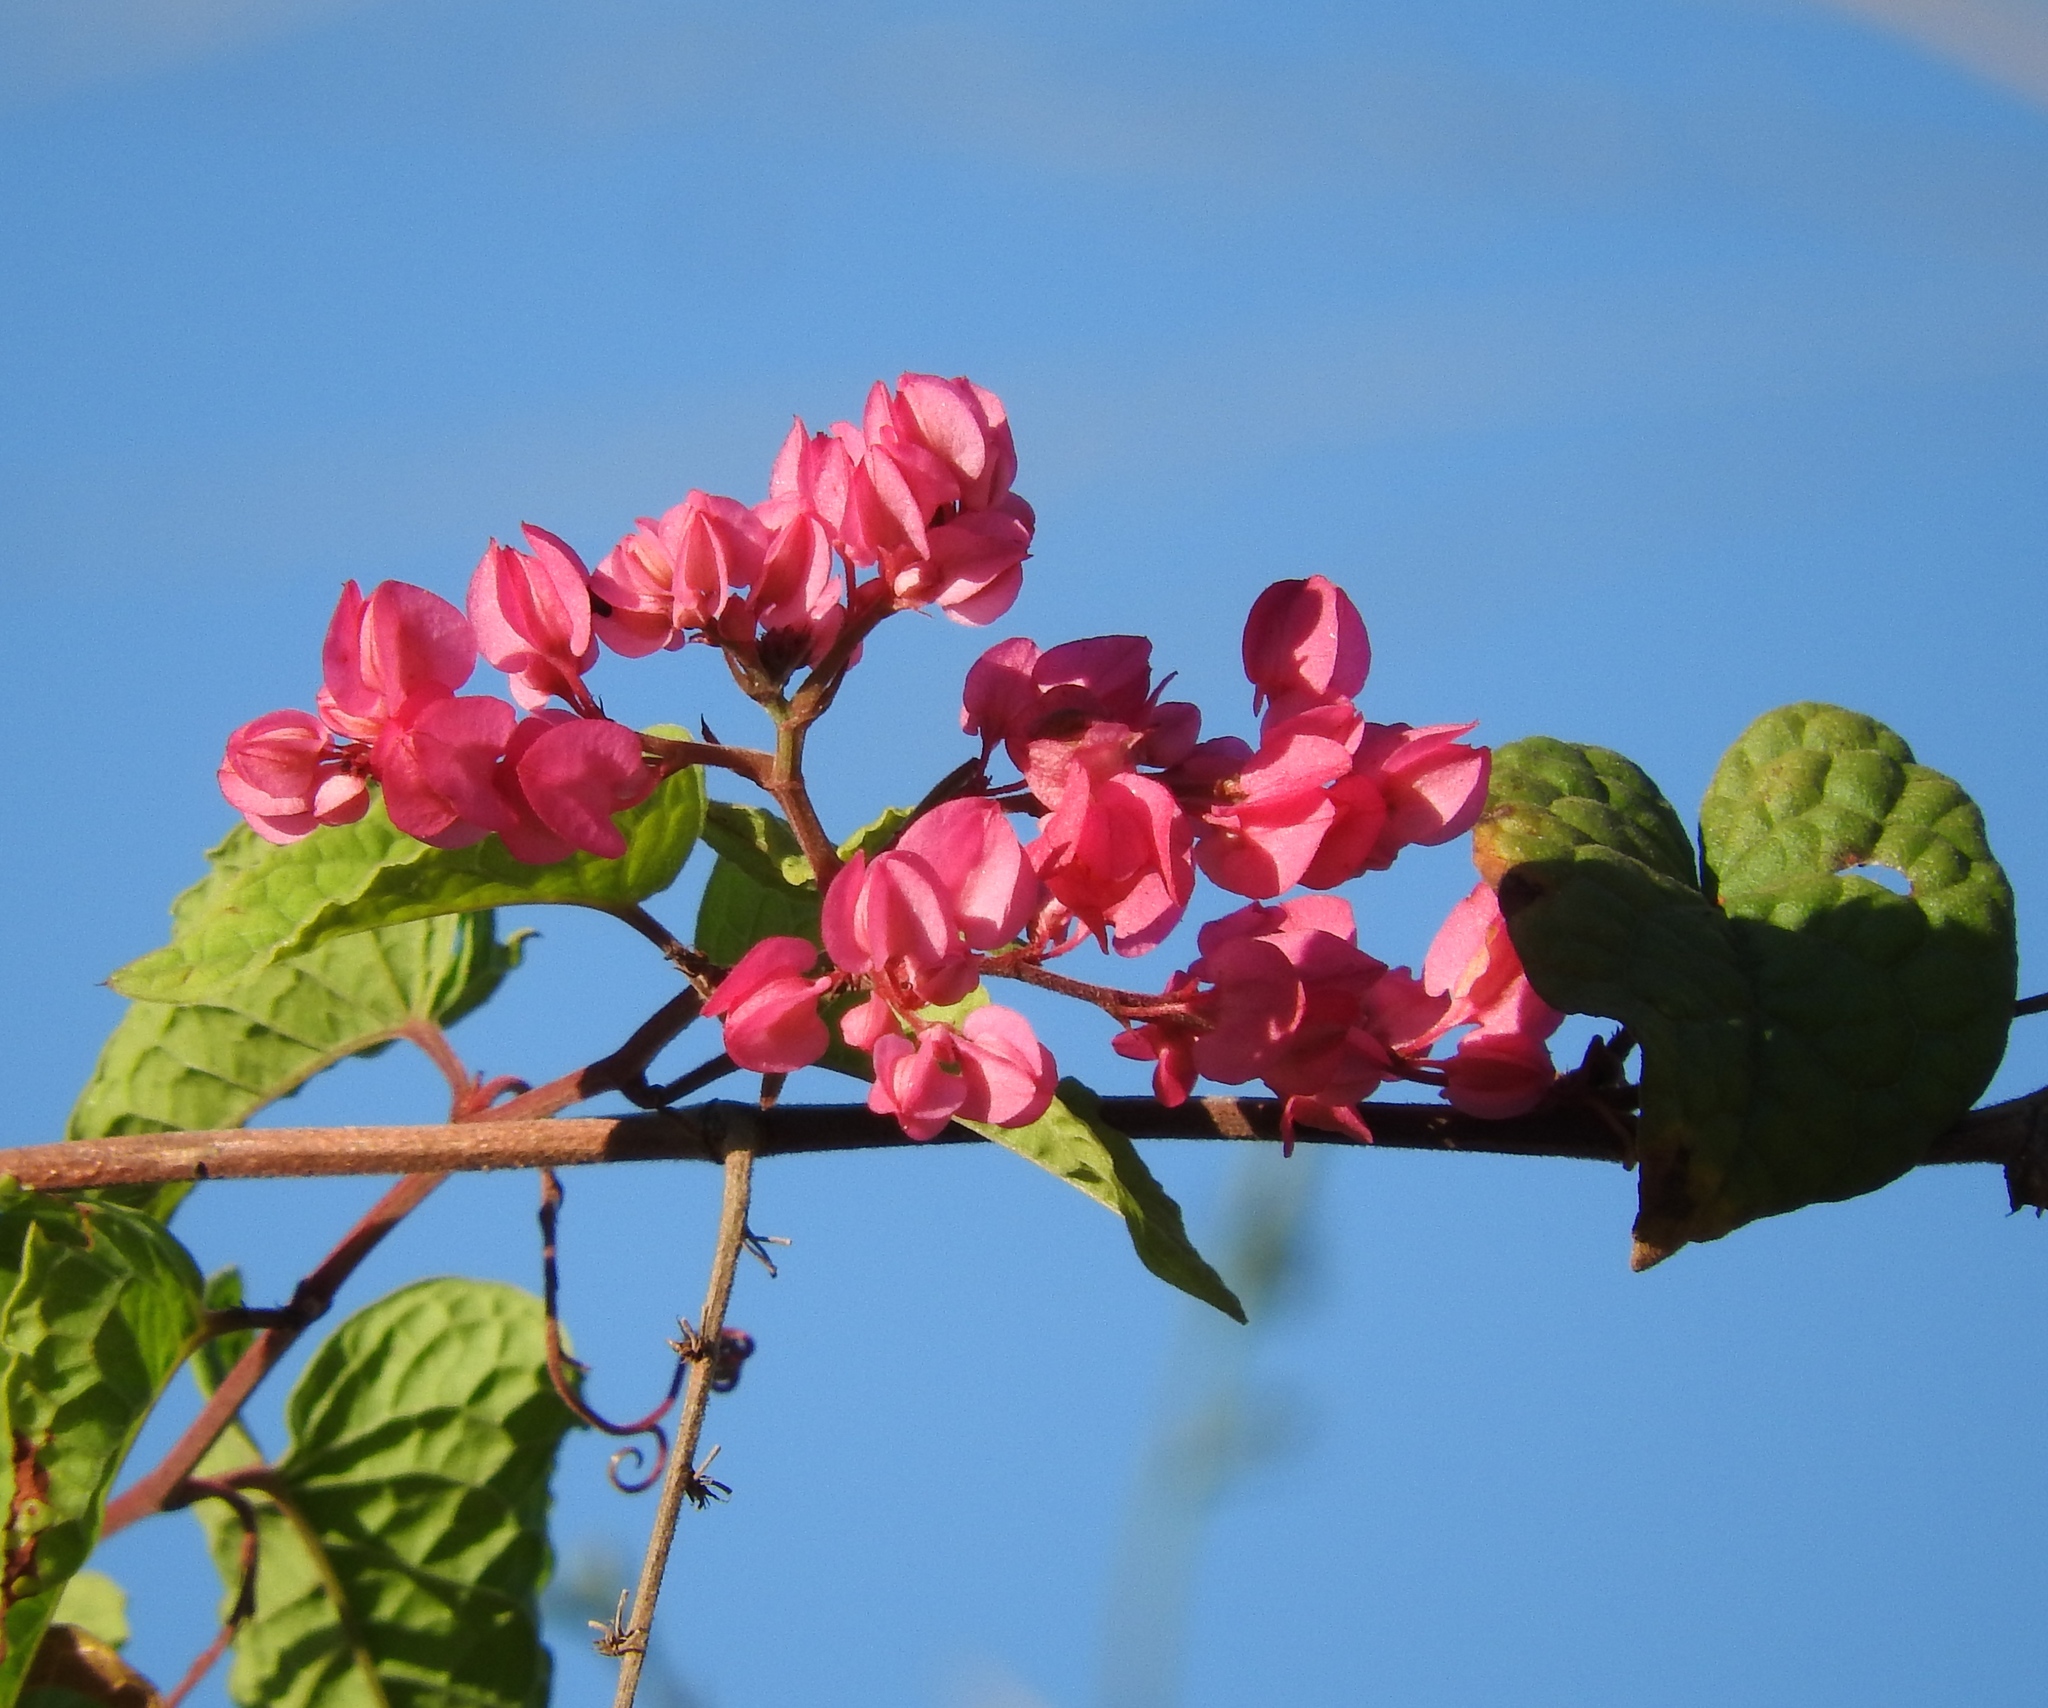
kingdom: Plantae
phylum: Tracheophyta
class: Magnoliopsida
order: Caryophyllales
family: Polygonaceae
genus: Antigonon
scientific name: Antigonon leptopus
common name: Coral vine
